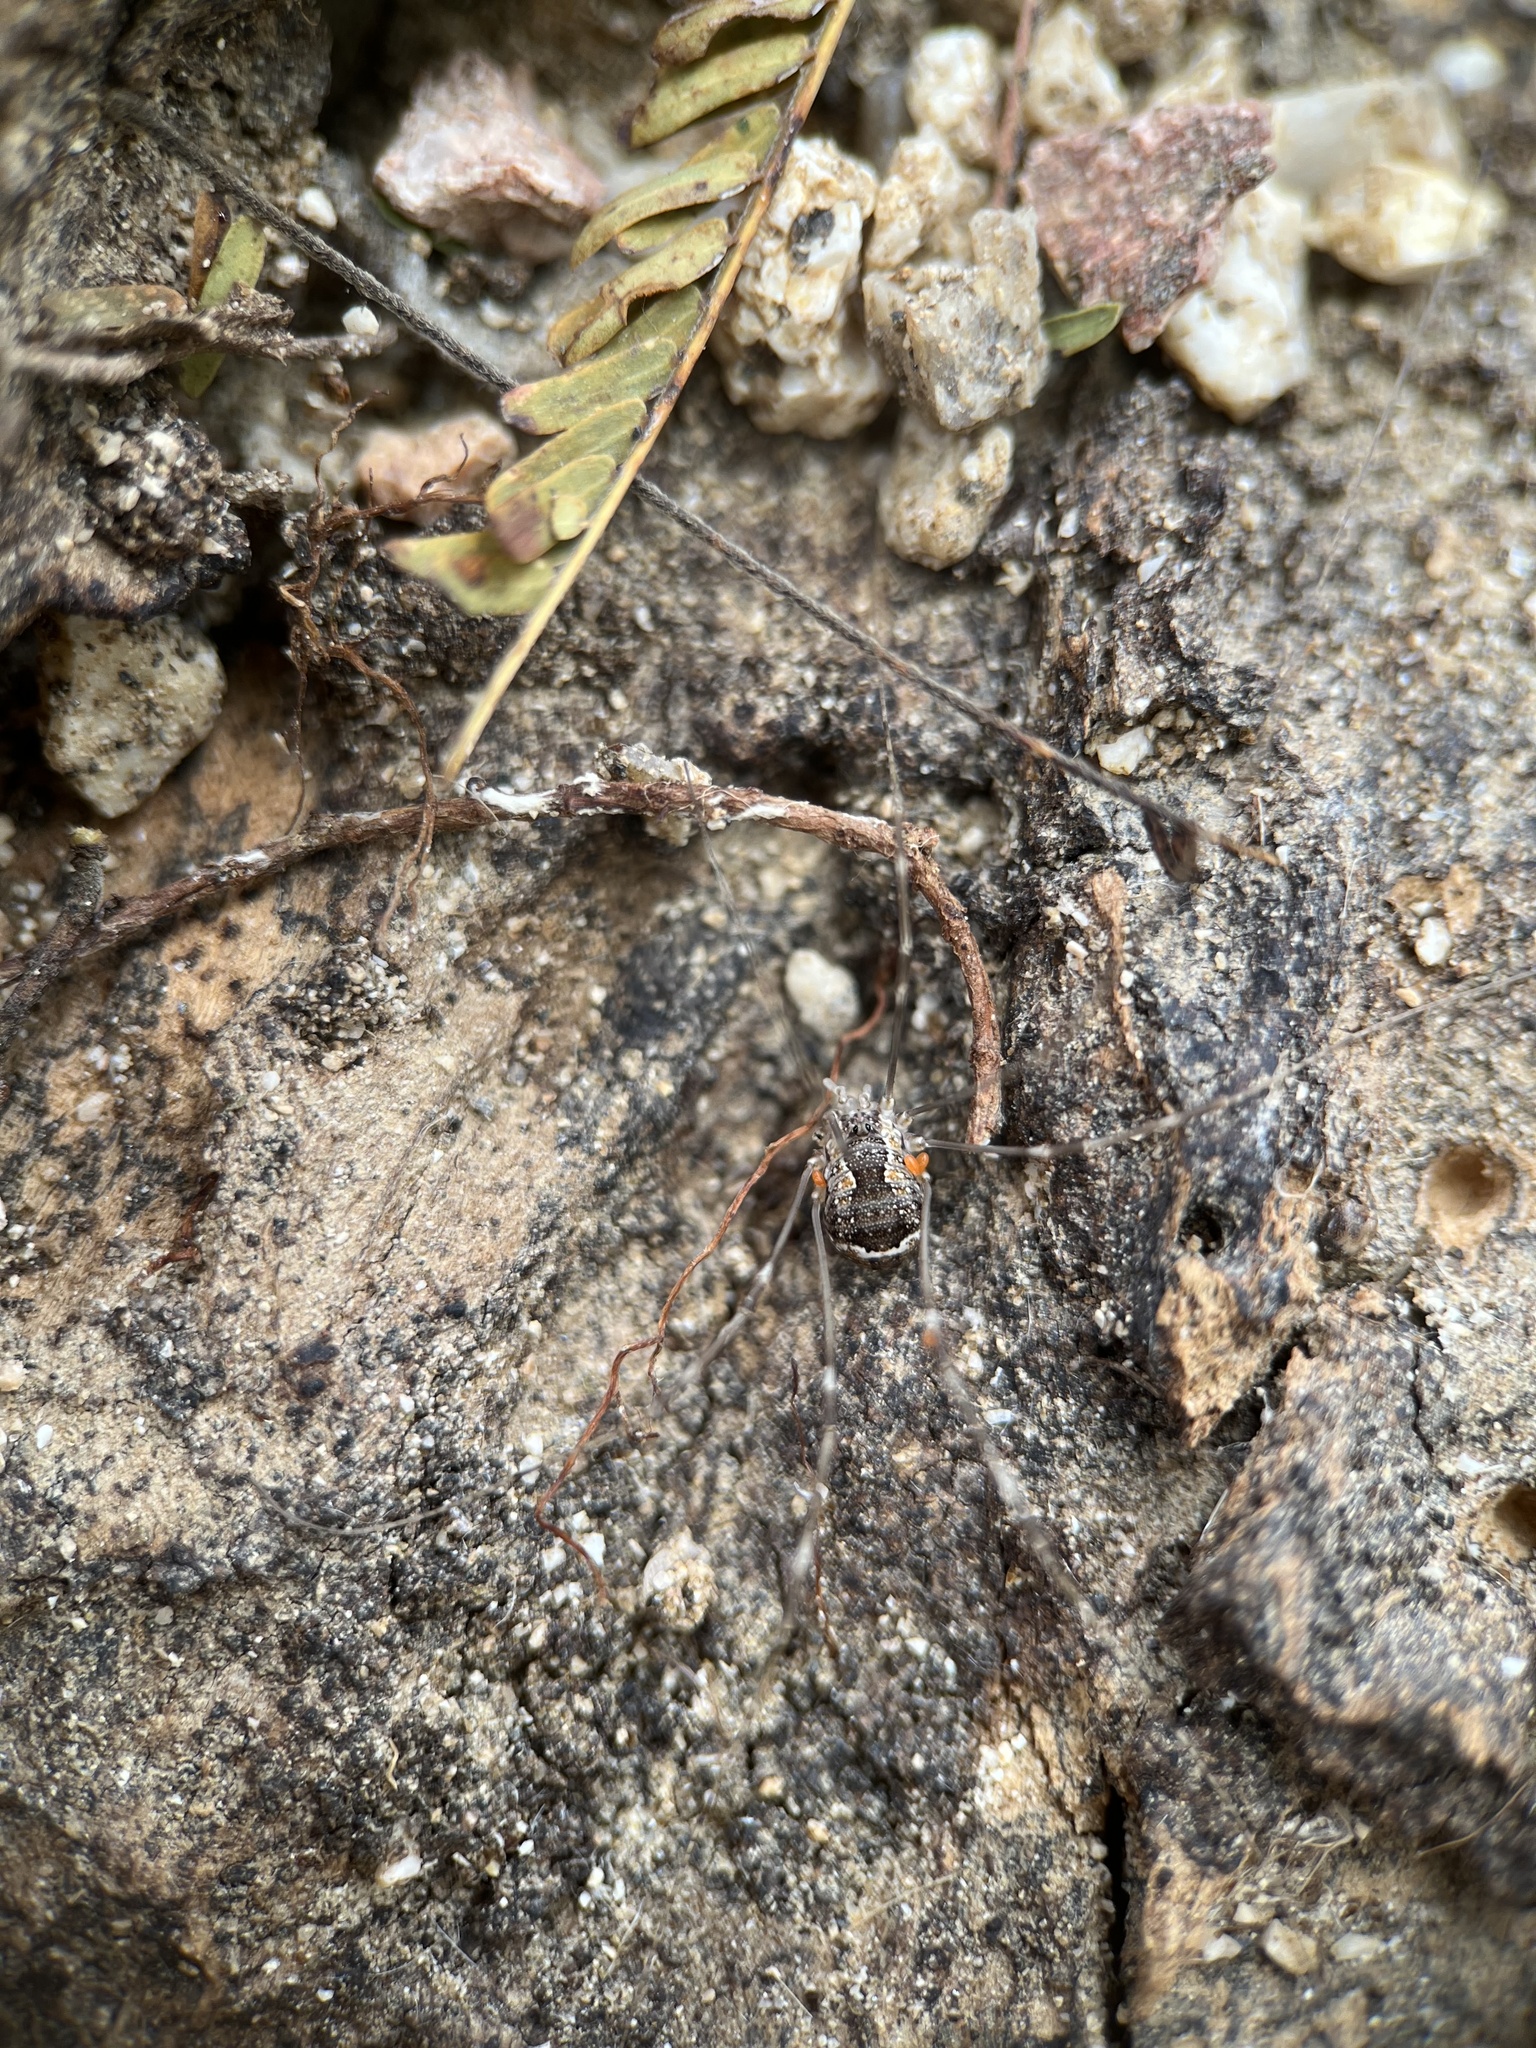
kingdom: Animalia
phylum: Arthropoda
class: Arachnida
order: Opiliones
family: Sclerosomatidae
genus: Leiobunum
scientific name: Leiobunum escondidum
